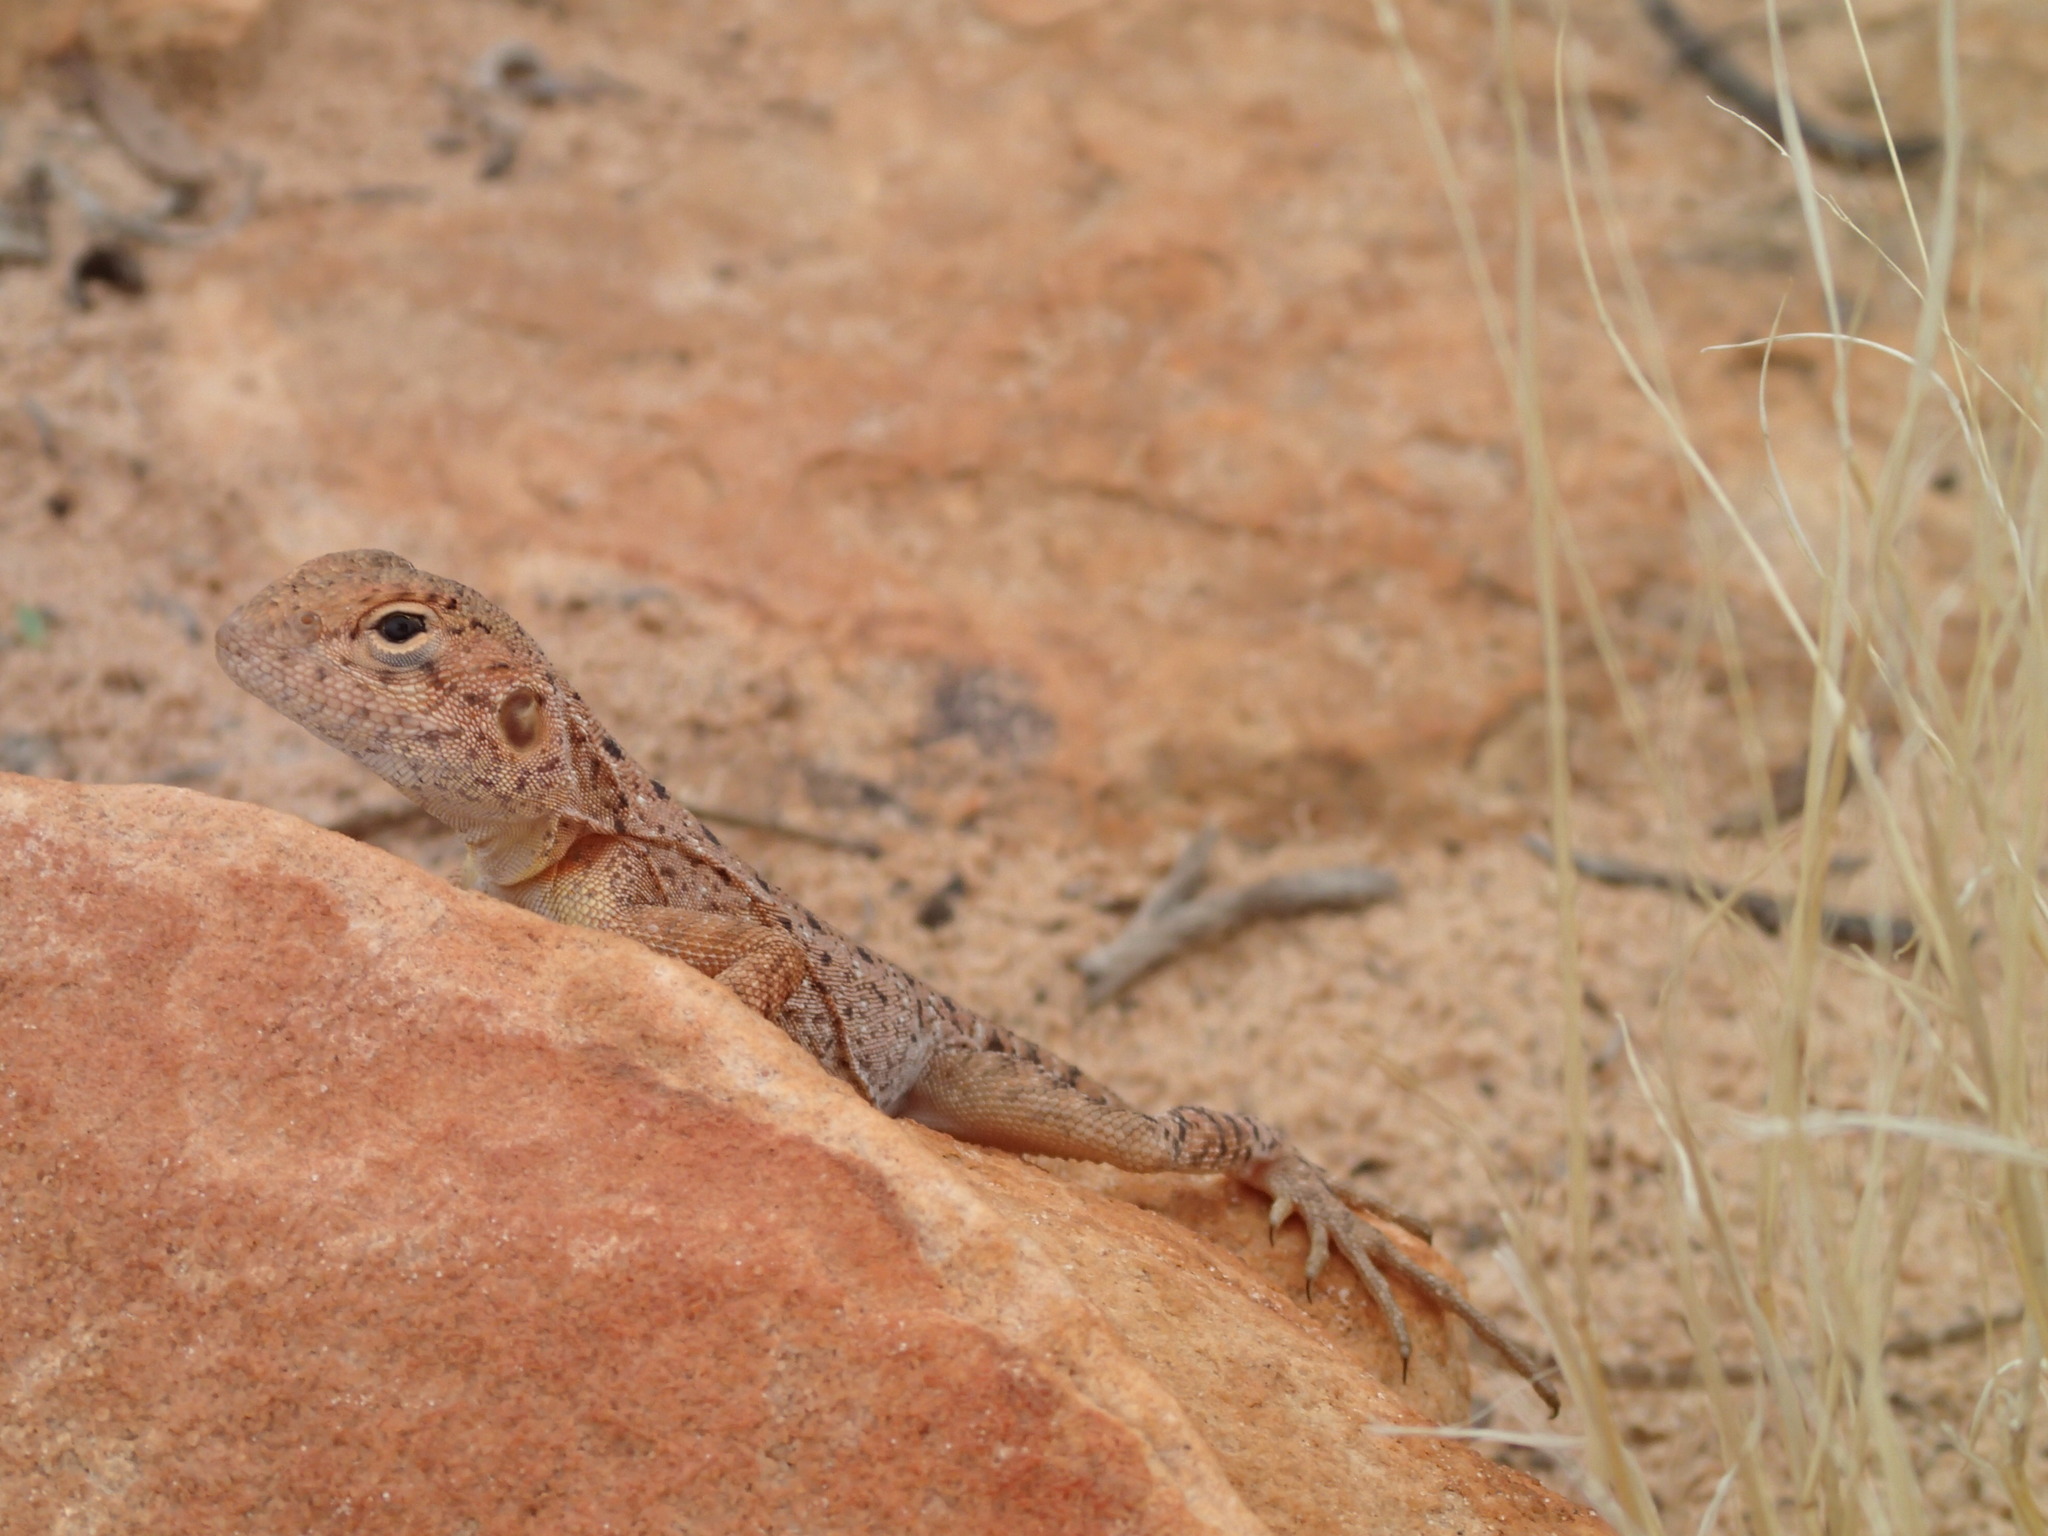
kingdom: Animalia
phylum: Chordata
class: Squamata
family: Agamidae
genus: Ctenophorus
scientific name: Ctenophorus slateri
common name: Slater’s dragon
